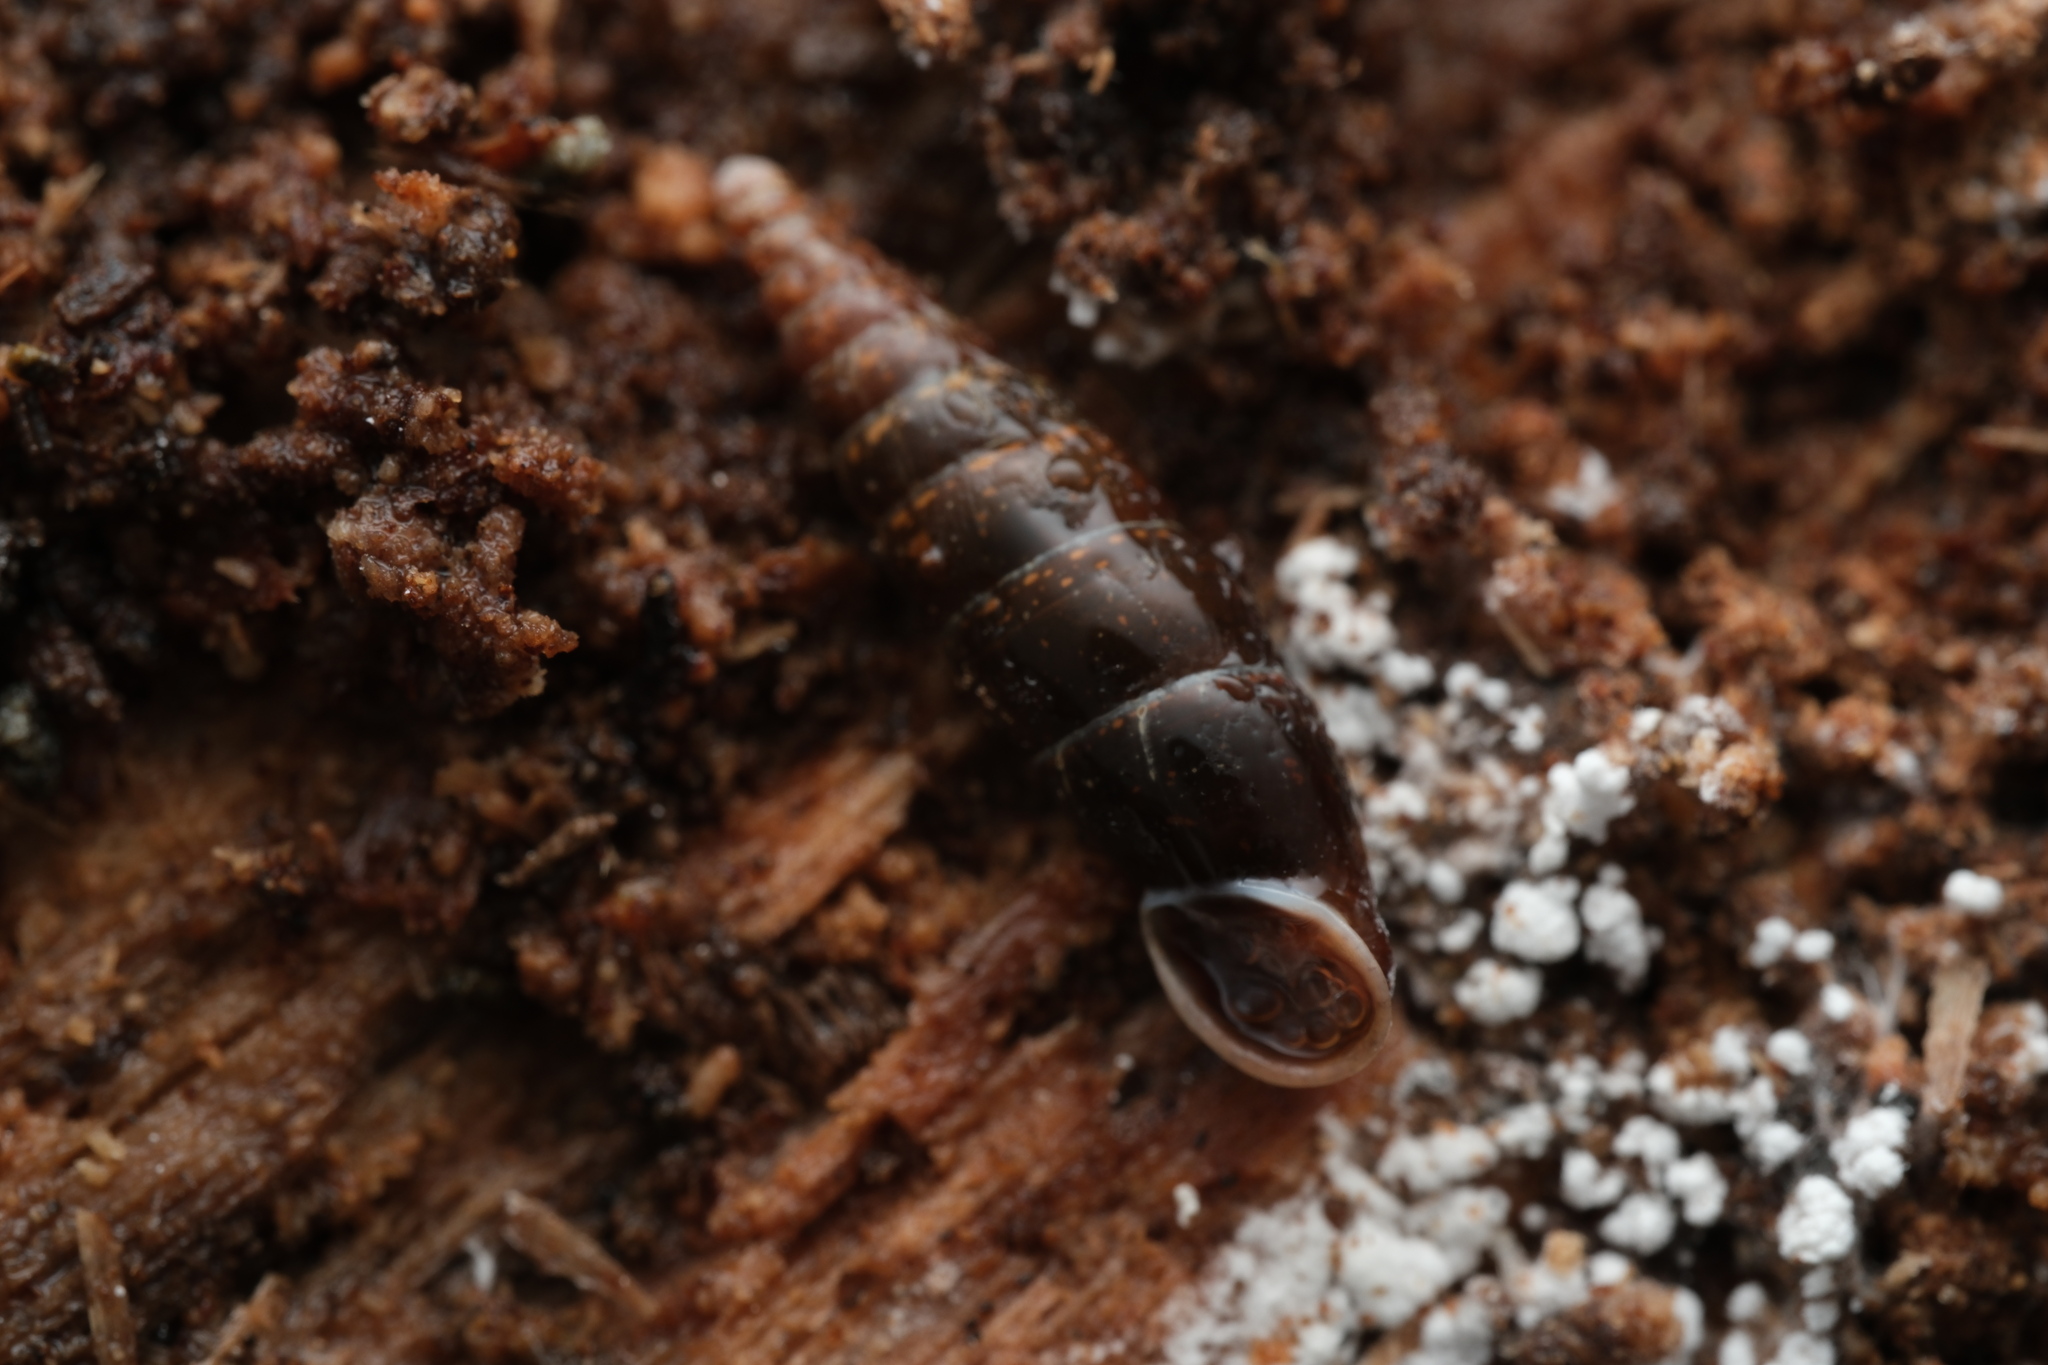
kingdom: Animalia
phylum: Mollusca
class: Gastropoda
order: Stylommatophora
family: Clausiliidae
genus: Cochlodina
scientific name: Cochlodina laminata
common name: Plaited door snail
